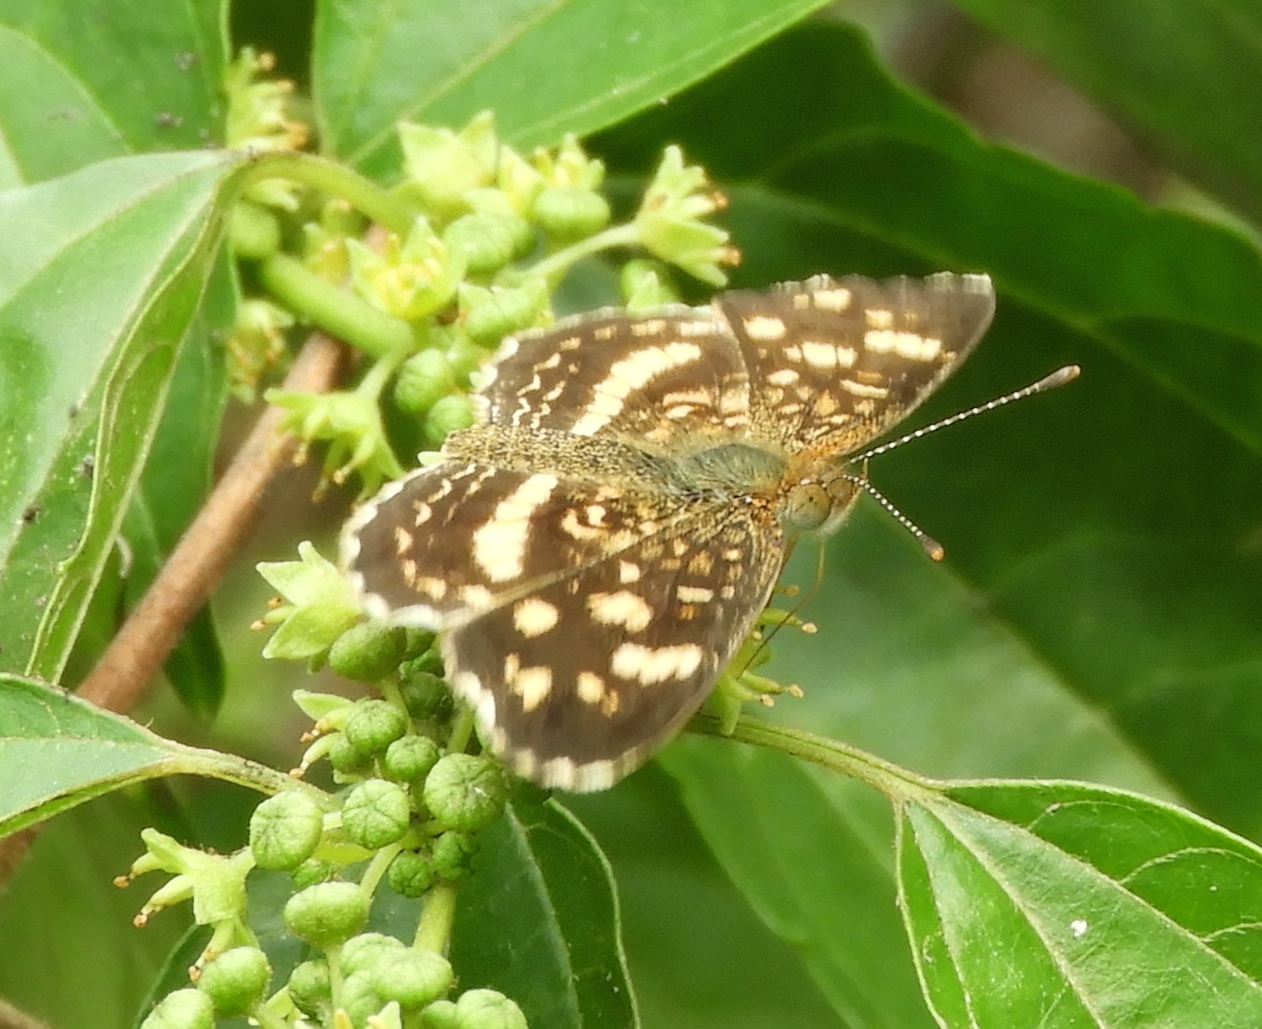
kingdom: Animalia
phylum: Arthropoda
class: Insecta
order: Lepidoptera
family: Nymphalidae
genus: Anthanassa
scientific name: Anthanassa tulcis
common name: Pale-banded crescent
